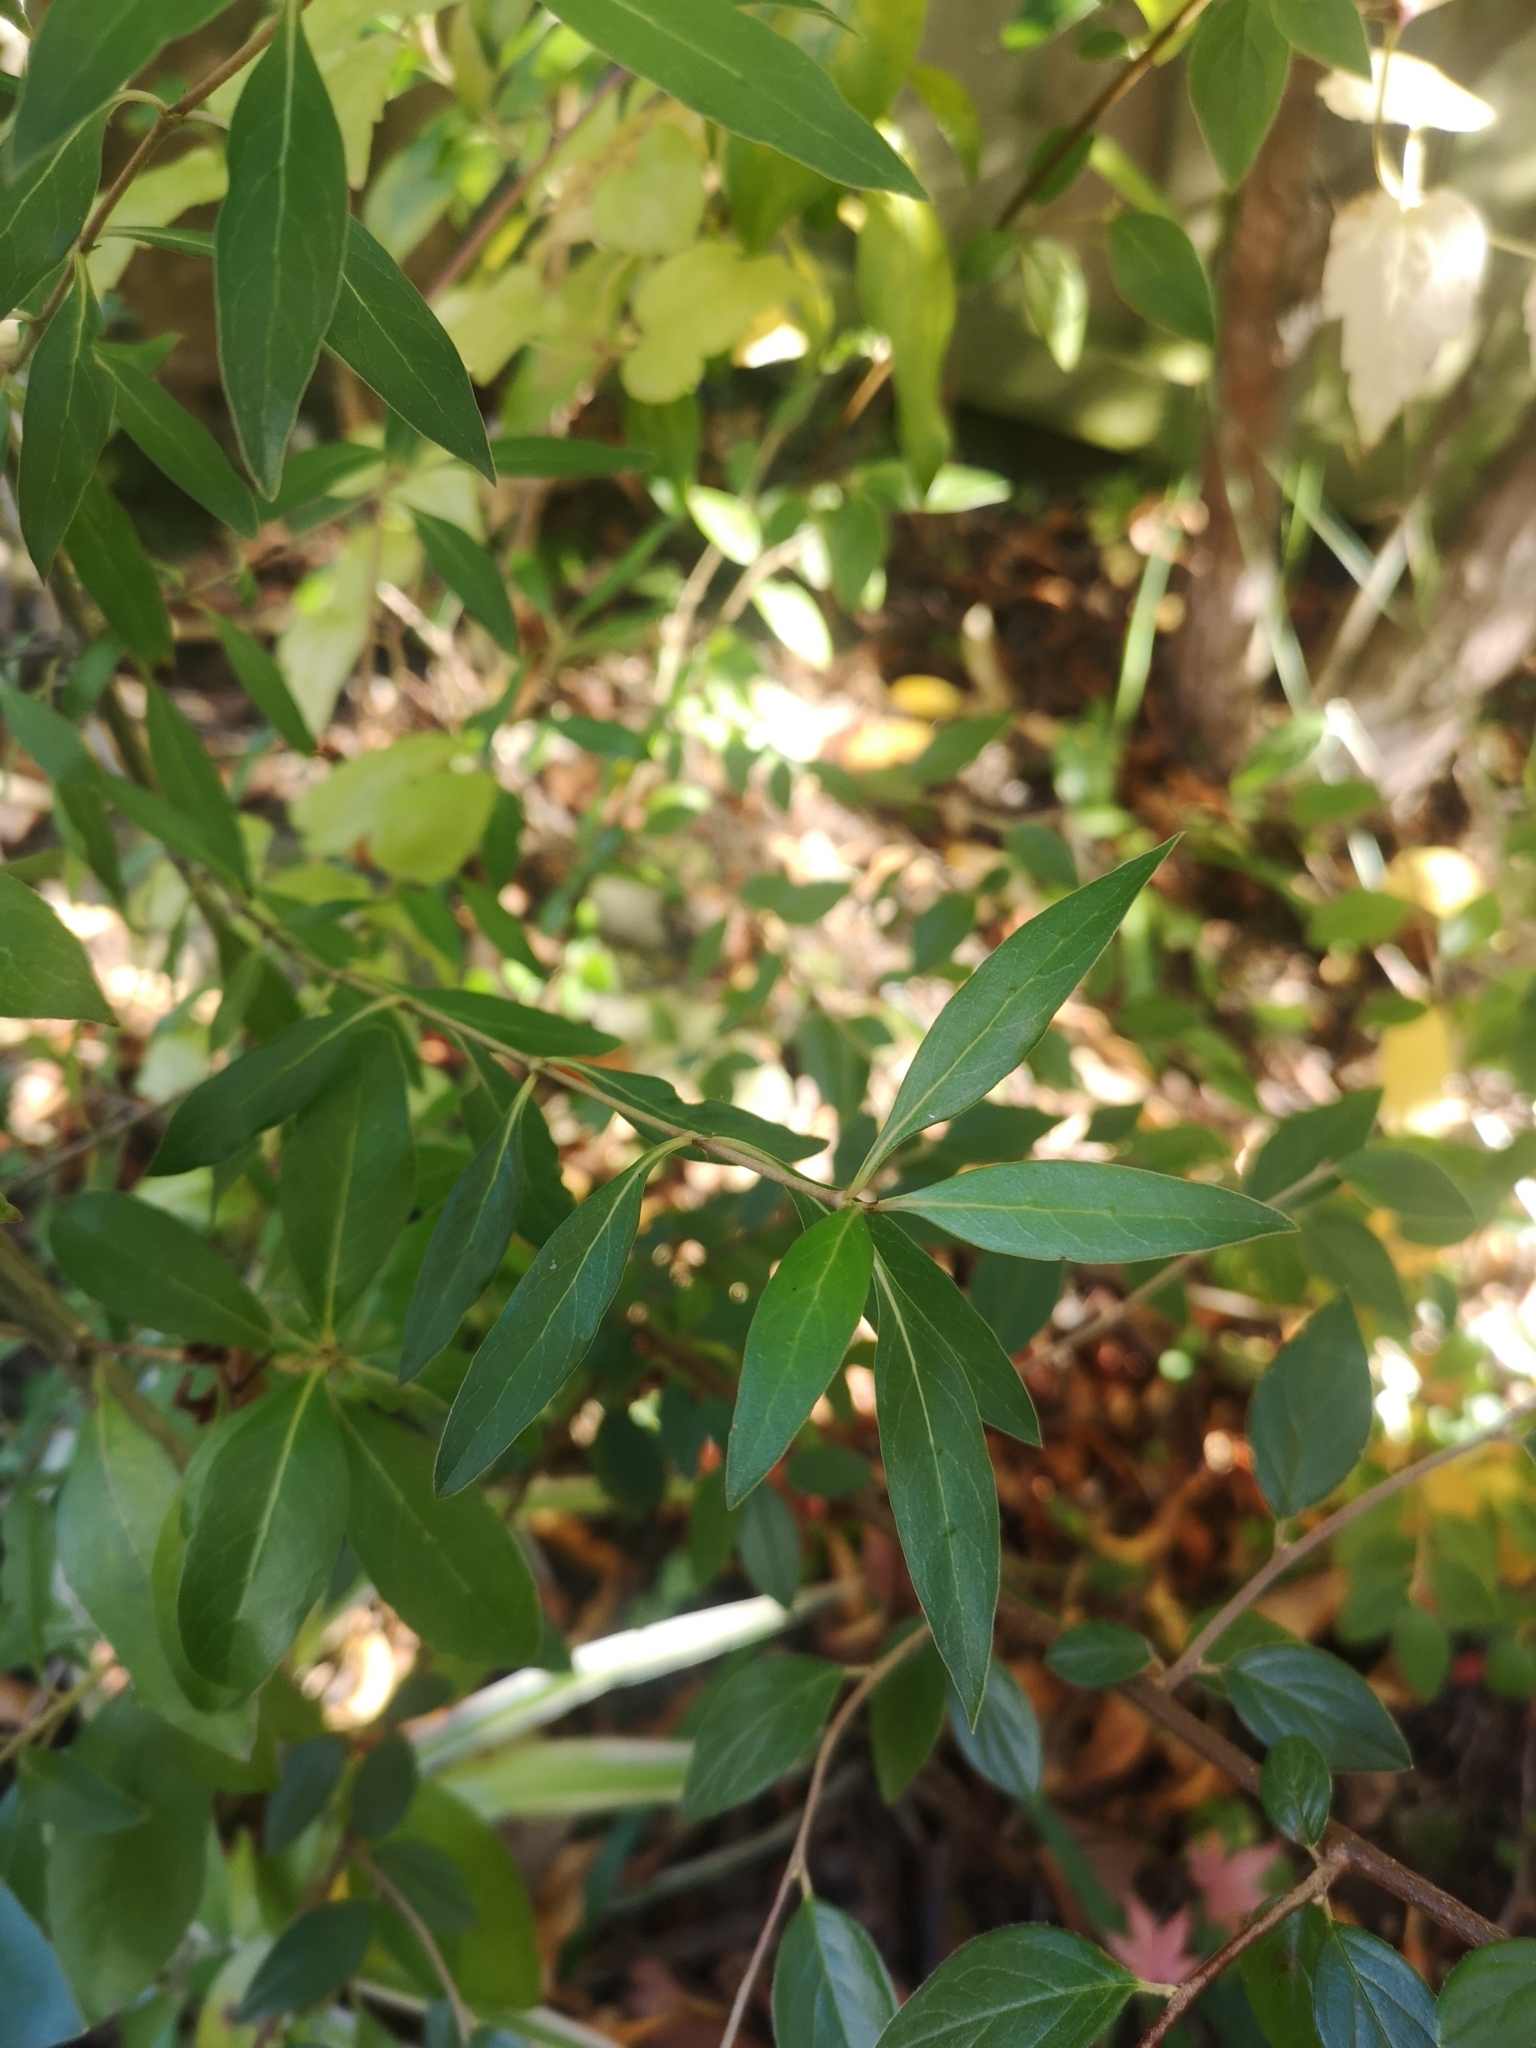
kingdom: Plantae
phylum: Tracheophyta
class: Magnoliopsida
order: Gentianales
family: Rubiaceae
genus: Coprosma
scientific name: Coprosma cunninghamii
